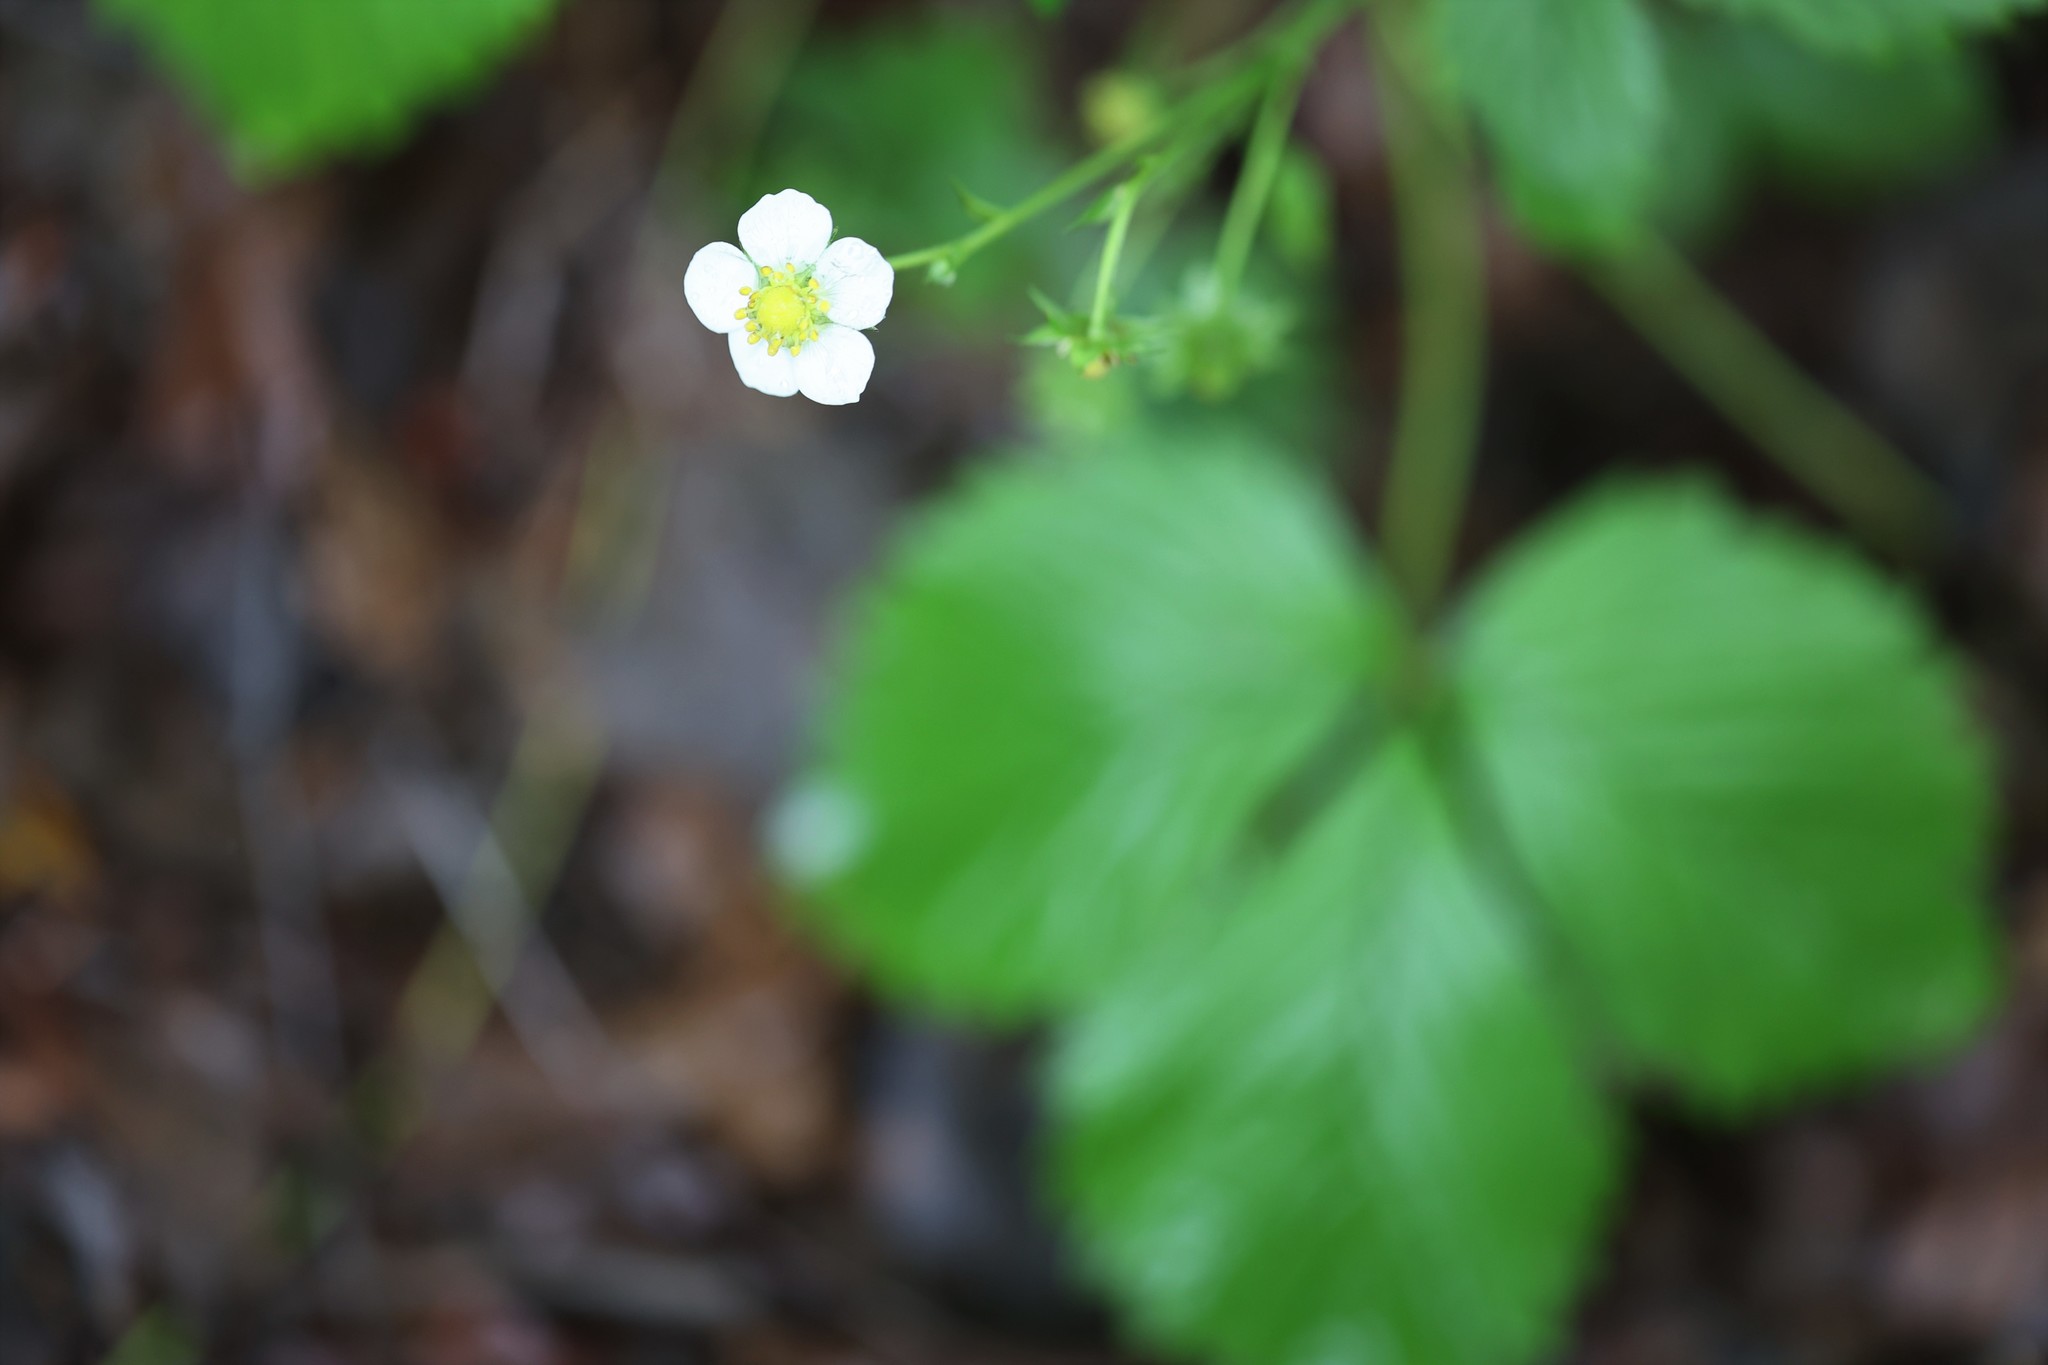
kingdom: Plantae
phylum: Tracheophyta
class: Magnoliopsida
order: Rosales
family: Rosaceae
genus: Fragaria
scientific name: Fragaria vesca
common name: Wild strawberry
